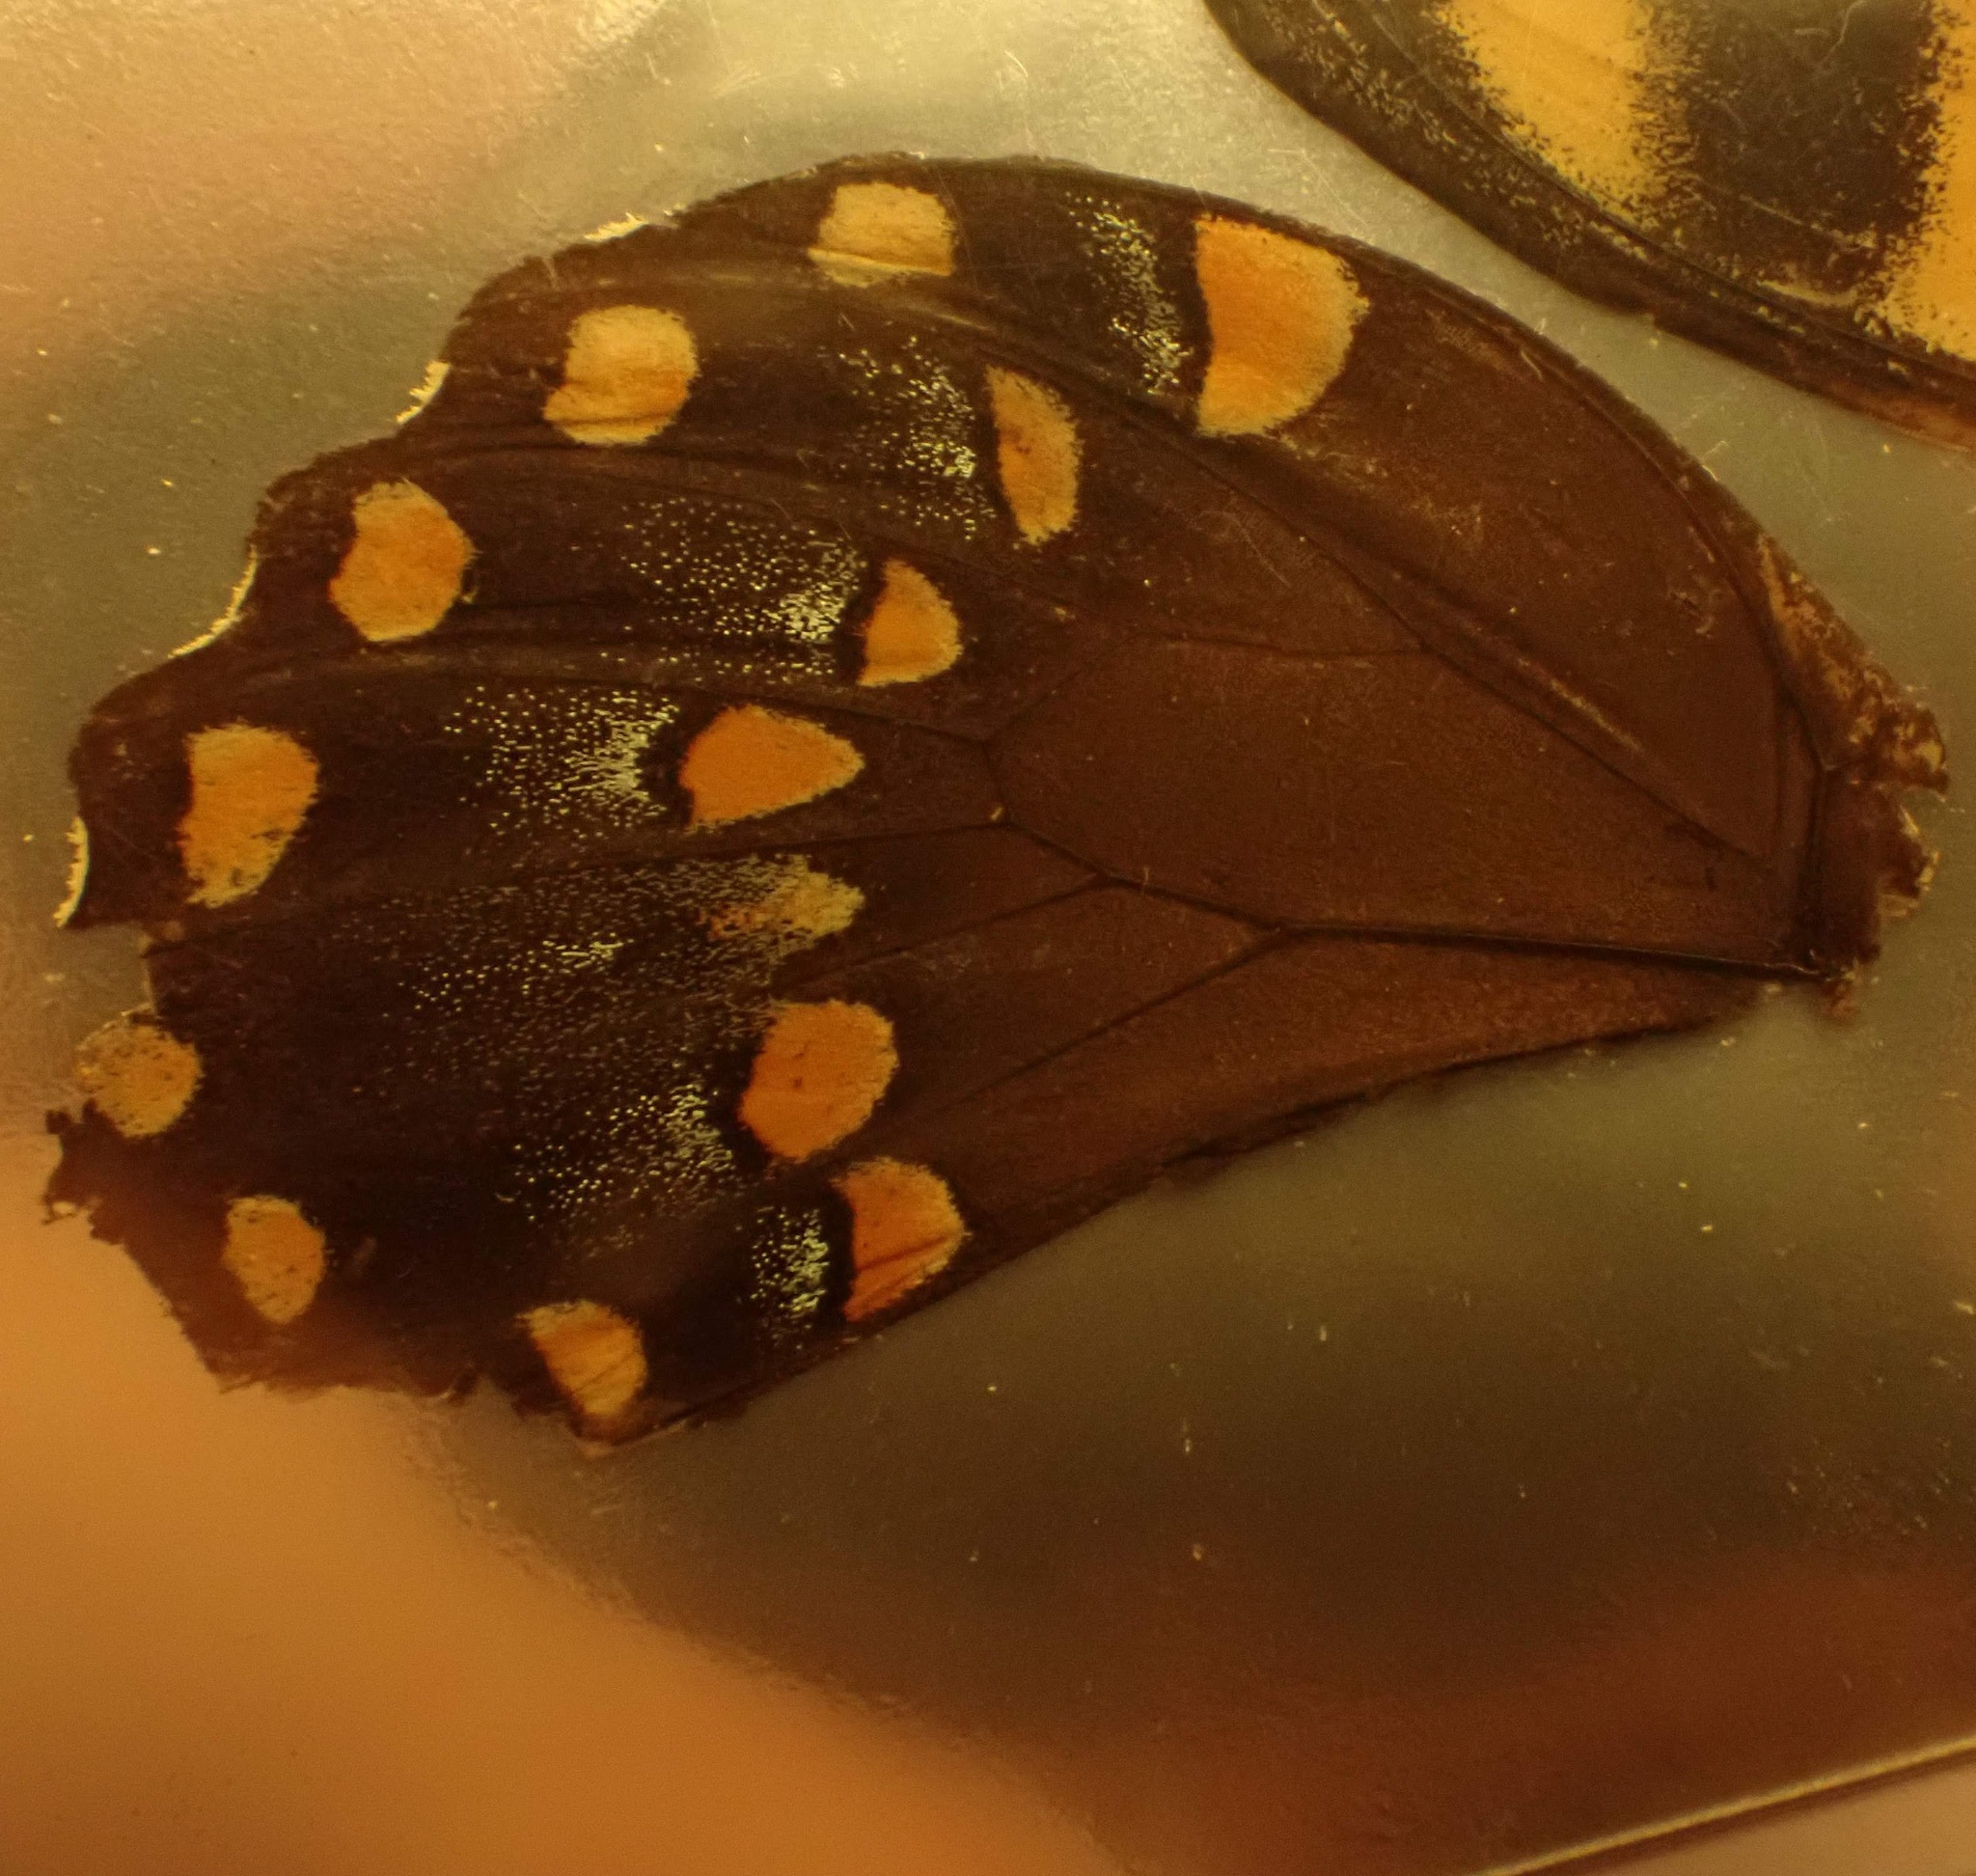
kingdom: Animalia
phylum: Arthropoda
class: Insecta
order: Lepidoptera
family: Papilionidae
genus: Papilio
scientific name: Papilio troilus
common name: Spicebush swallowtail
